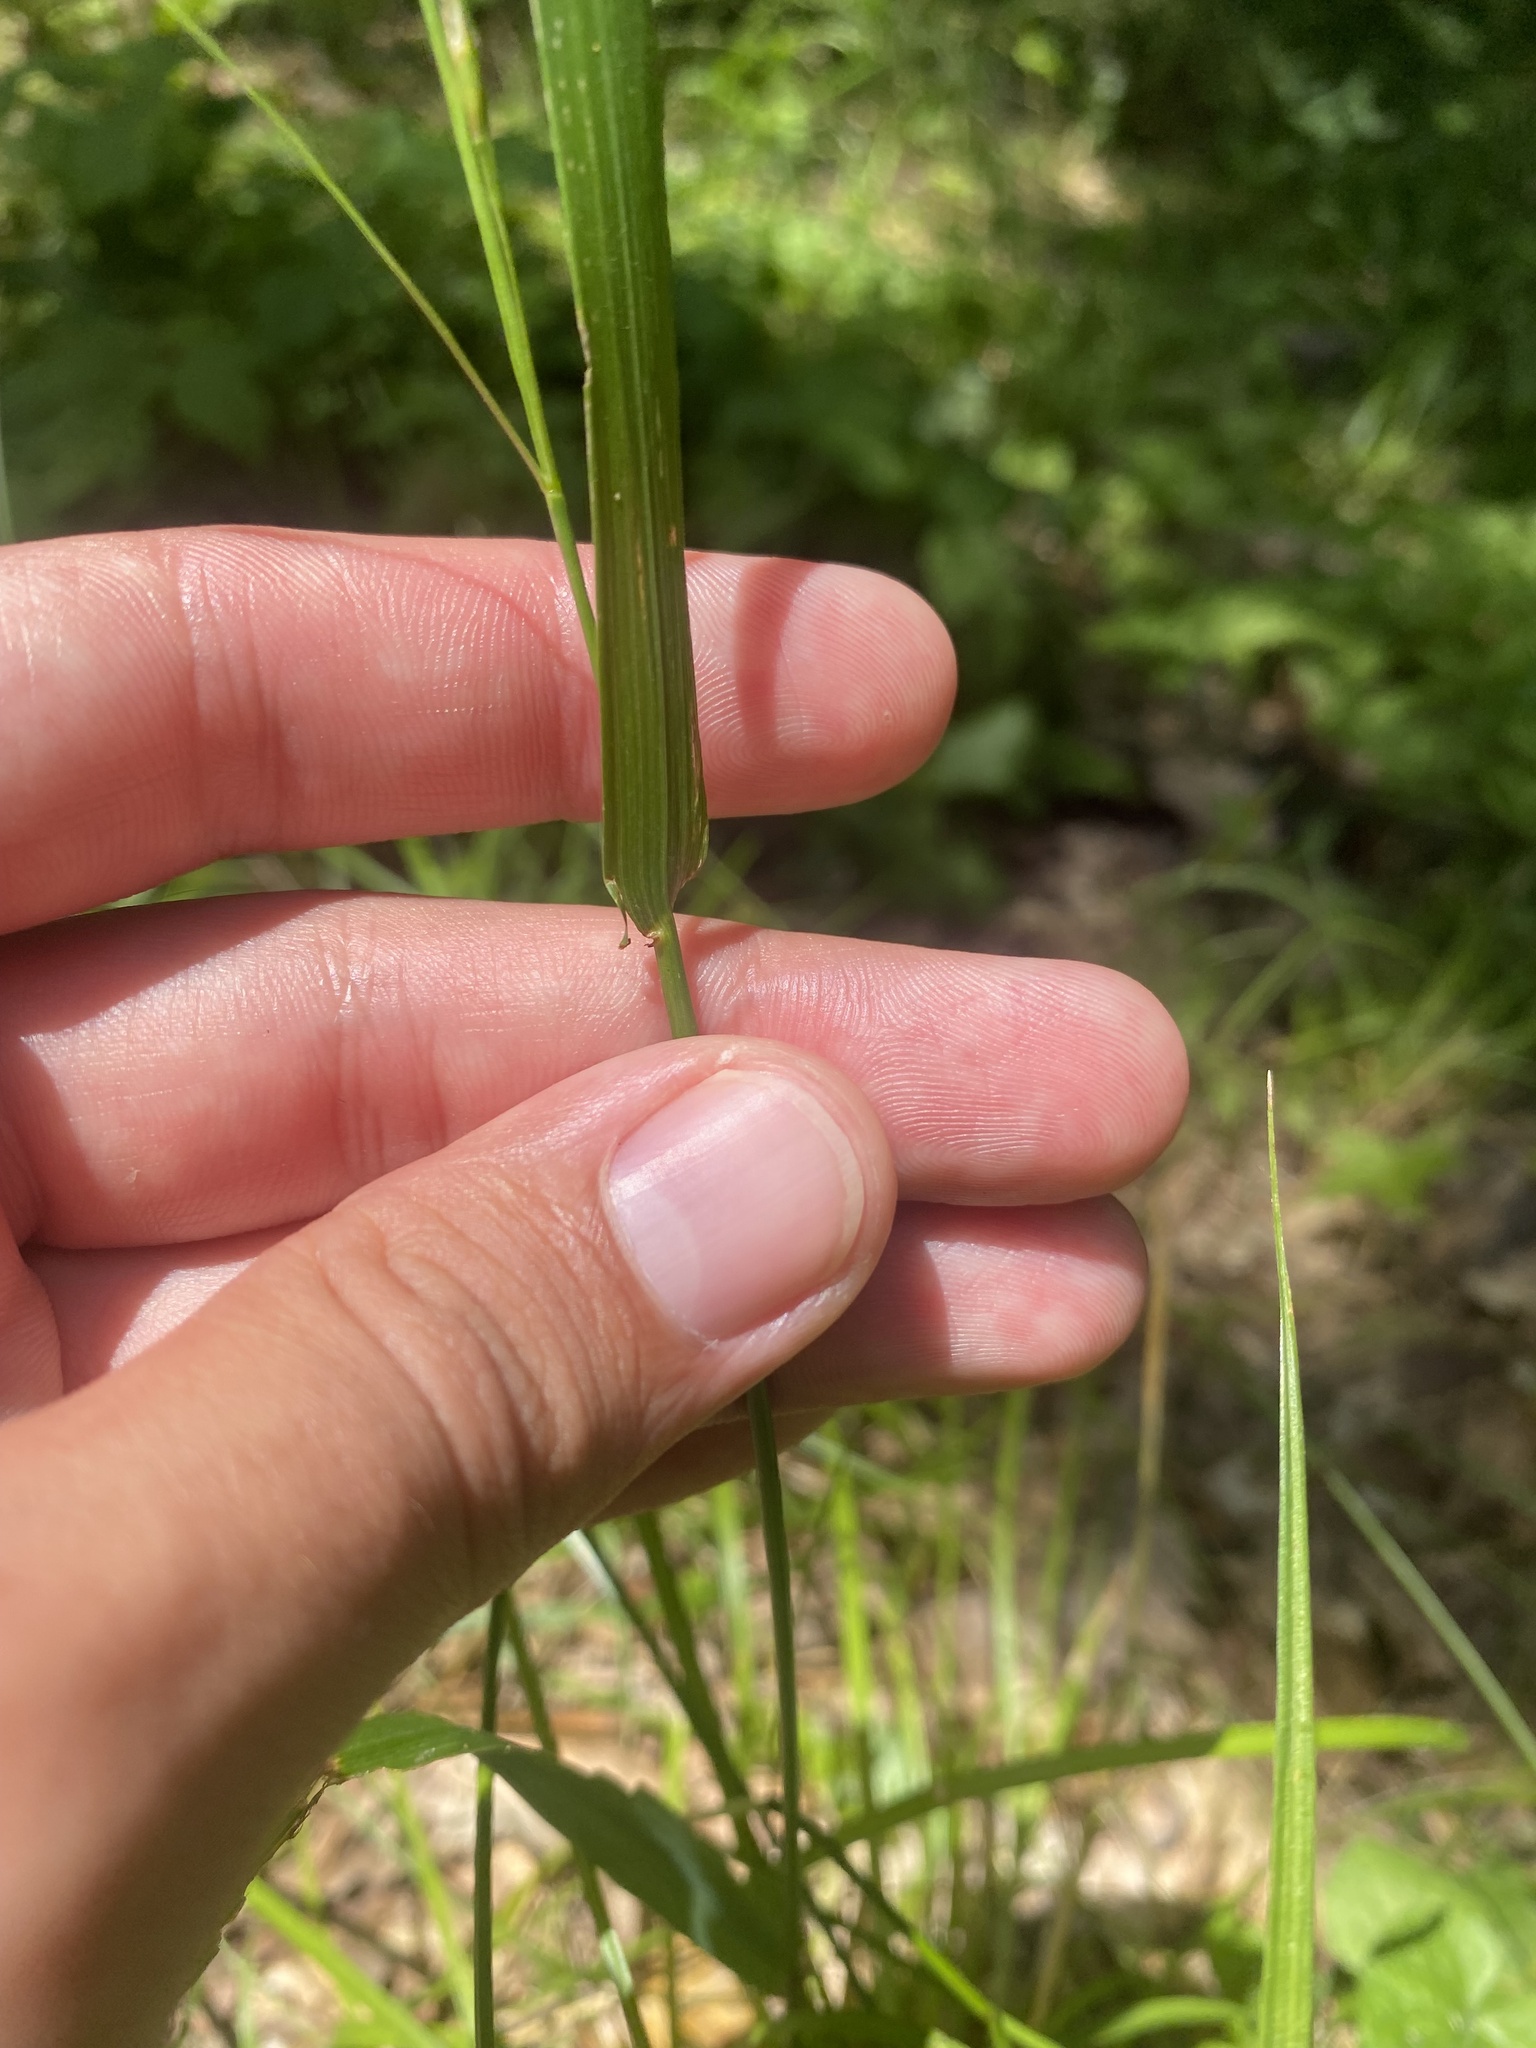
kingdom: Plantae
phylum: Tracheophyta
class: Liliopsida
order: Poales
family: Poaceae
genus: Lolium
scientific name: Lolium giganteum
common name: Giant fescue
